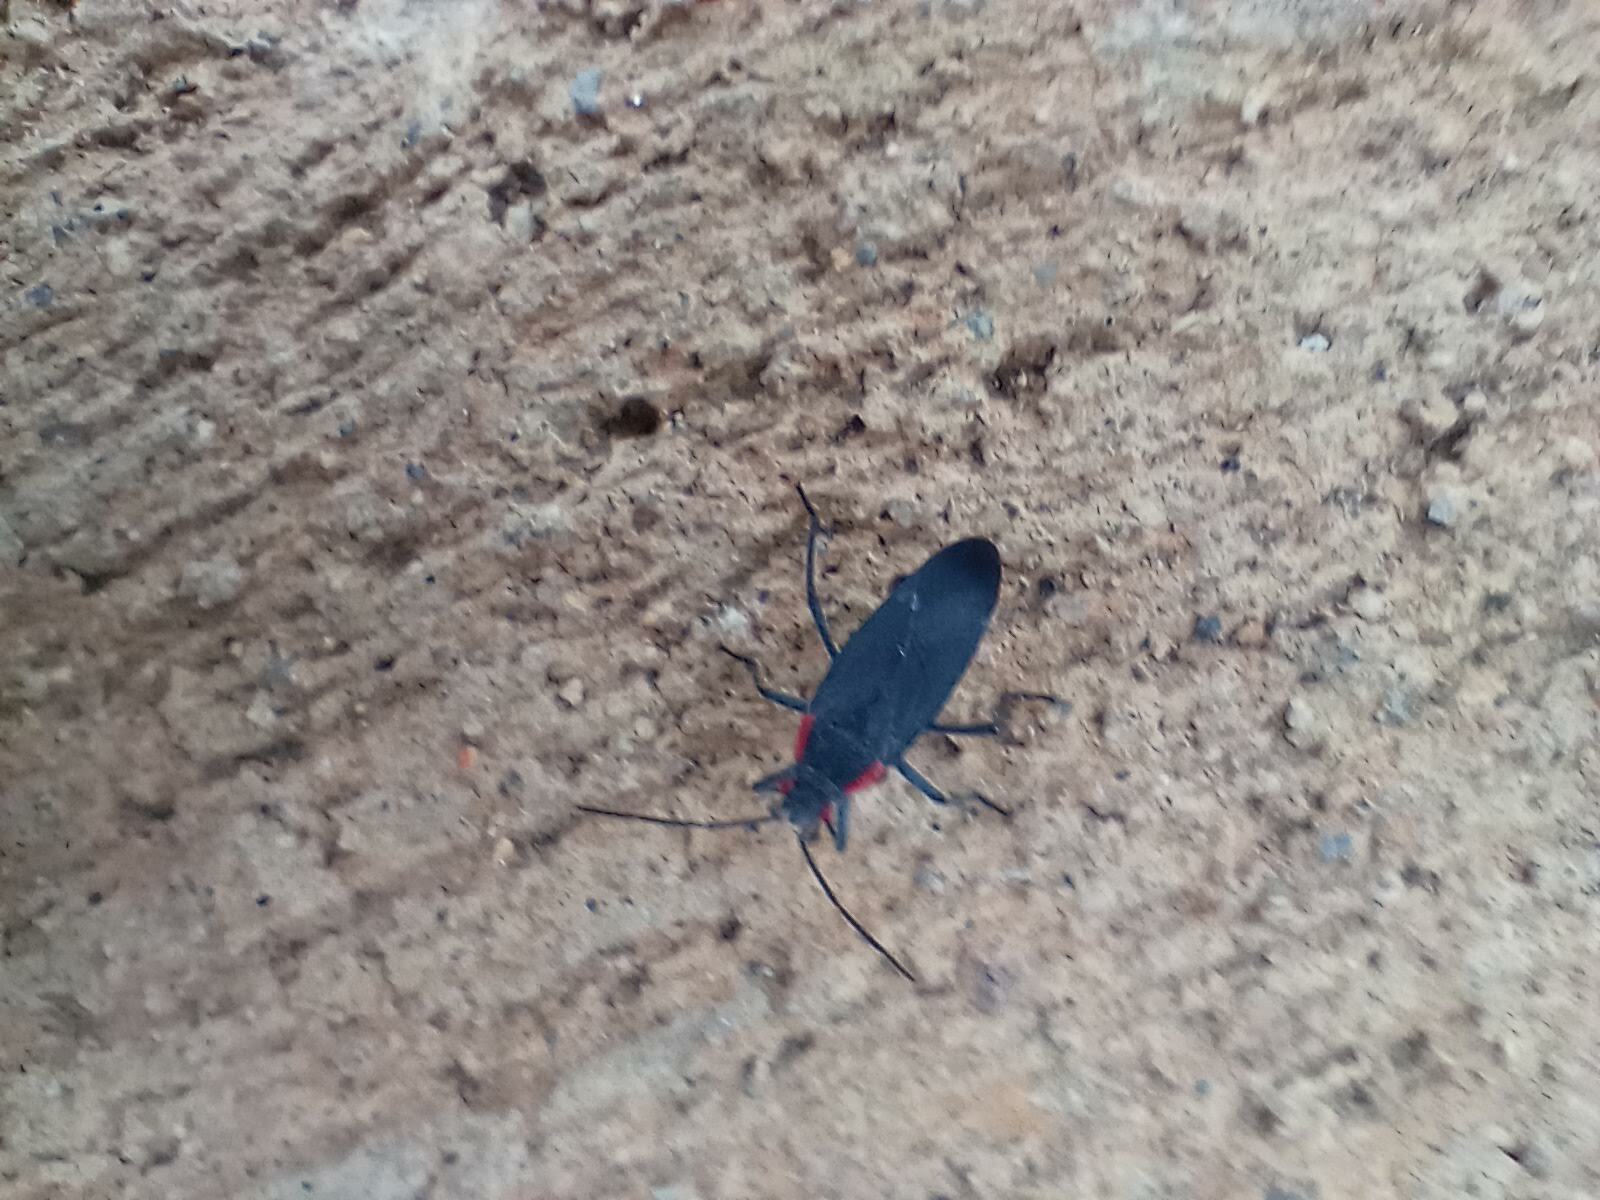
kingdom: Animalia
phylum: Arthropoda
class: Insecta
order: Hemiptera
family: Rhopalidae
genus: Jadera
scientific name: Jadera haematoloma
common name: Red-shouldered bug
